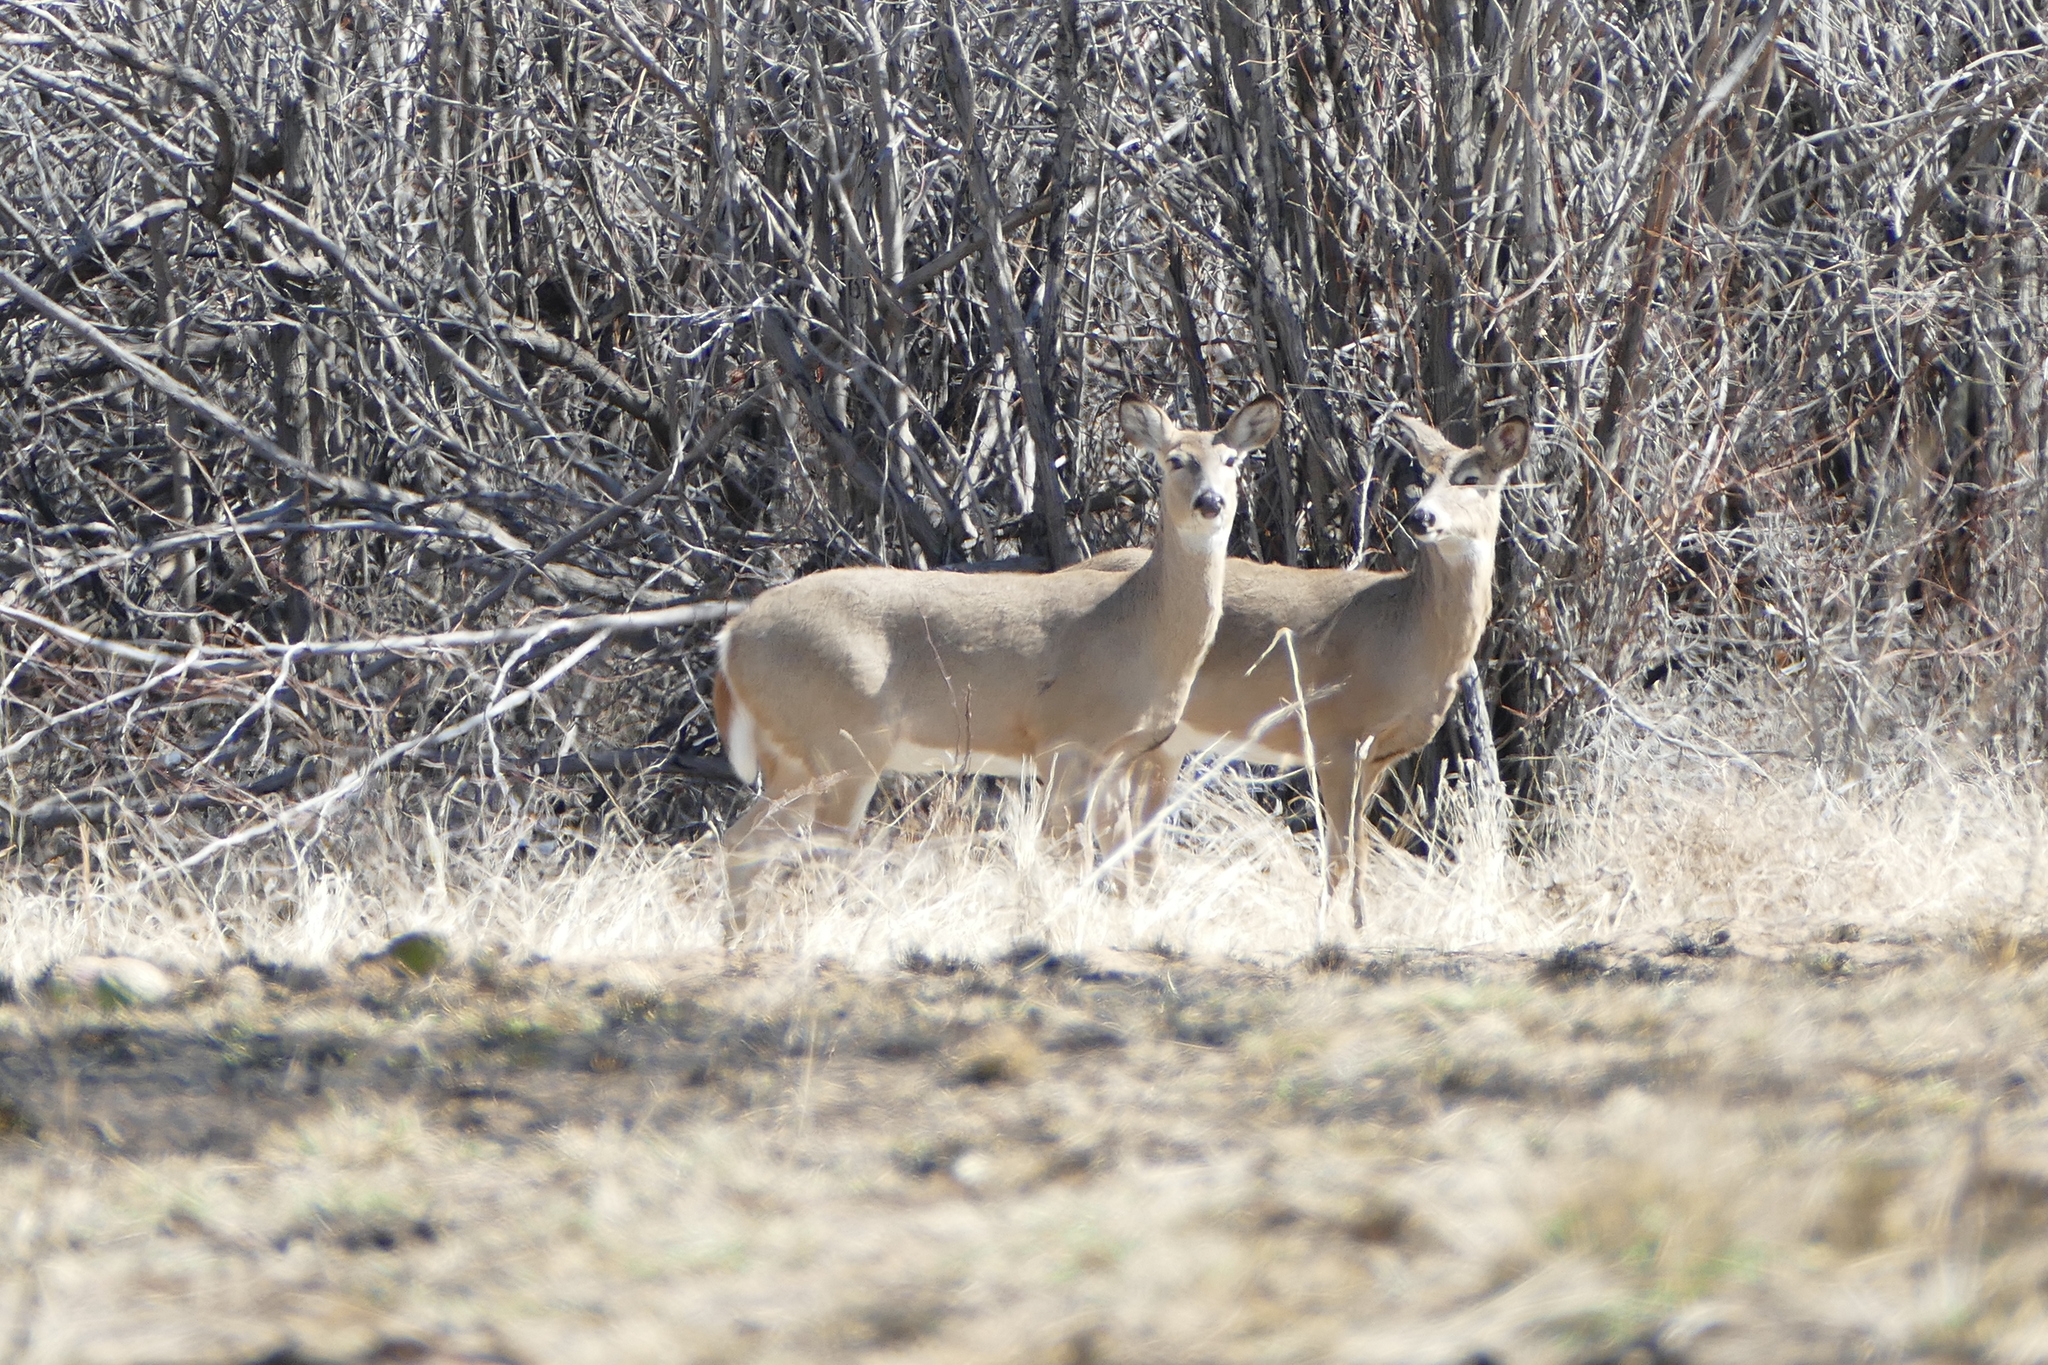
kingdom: Animalia
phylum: Chordata
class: Mammalia
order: Artiodactyla
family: Cervidae
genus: Odocoileus
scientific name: Odocoileus virginianus
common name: White-tailed deer
